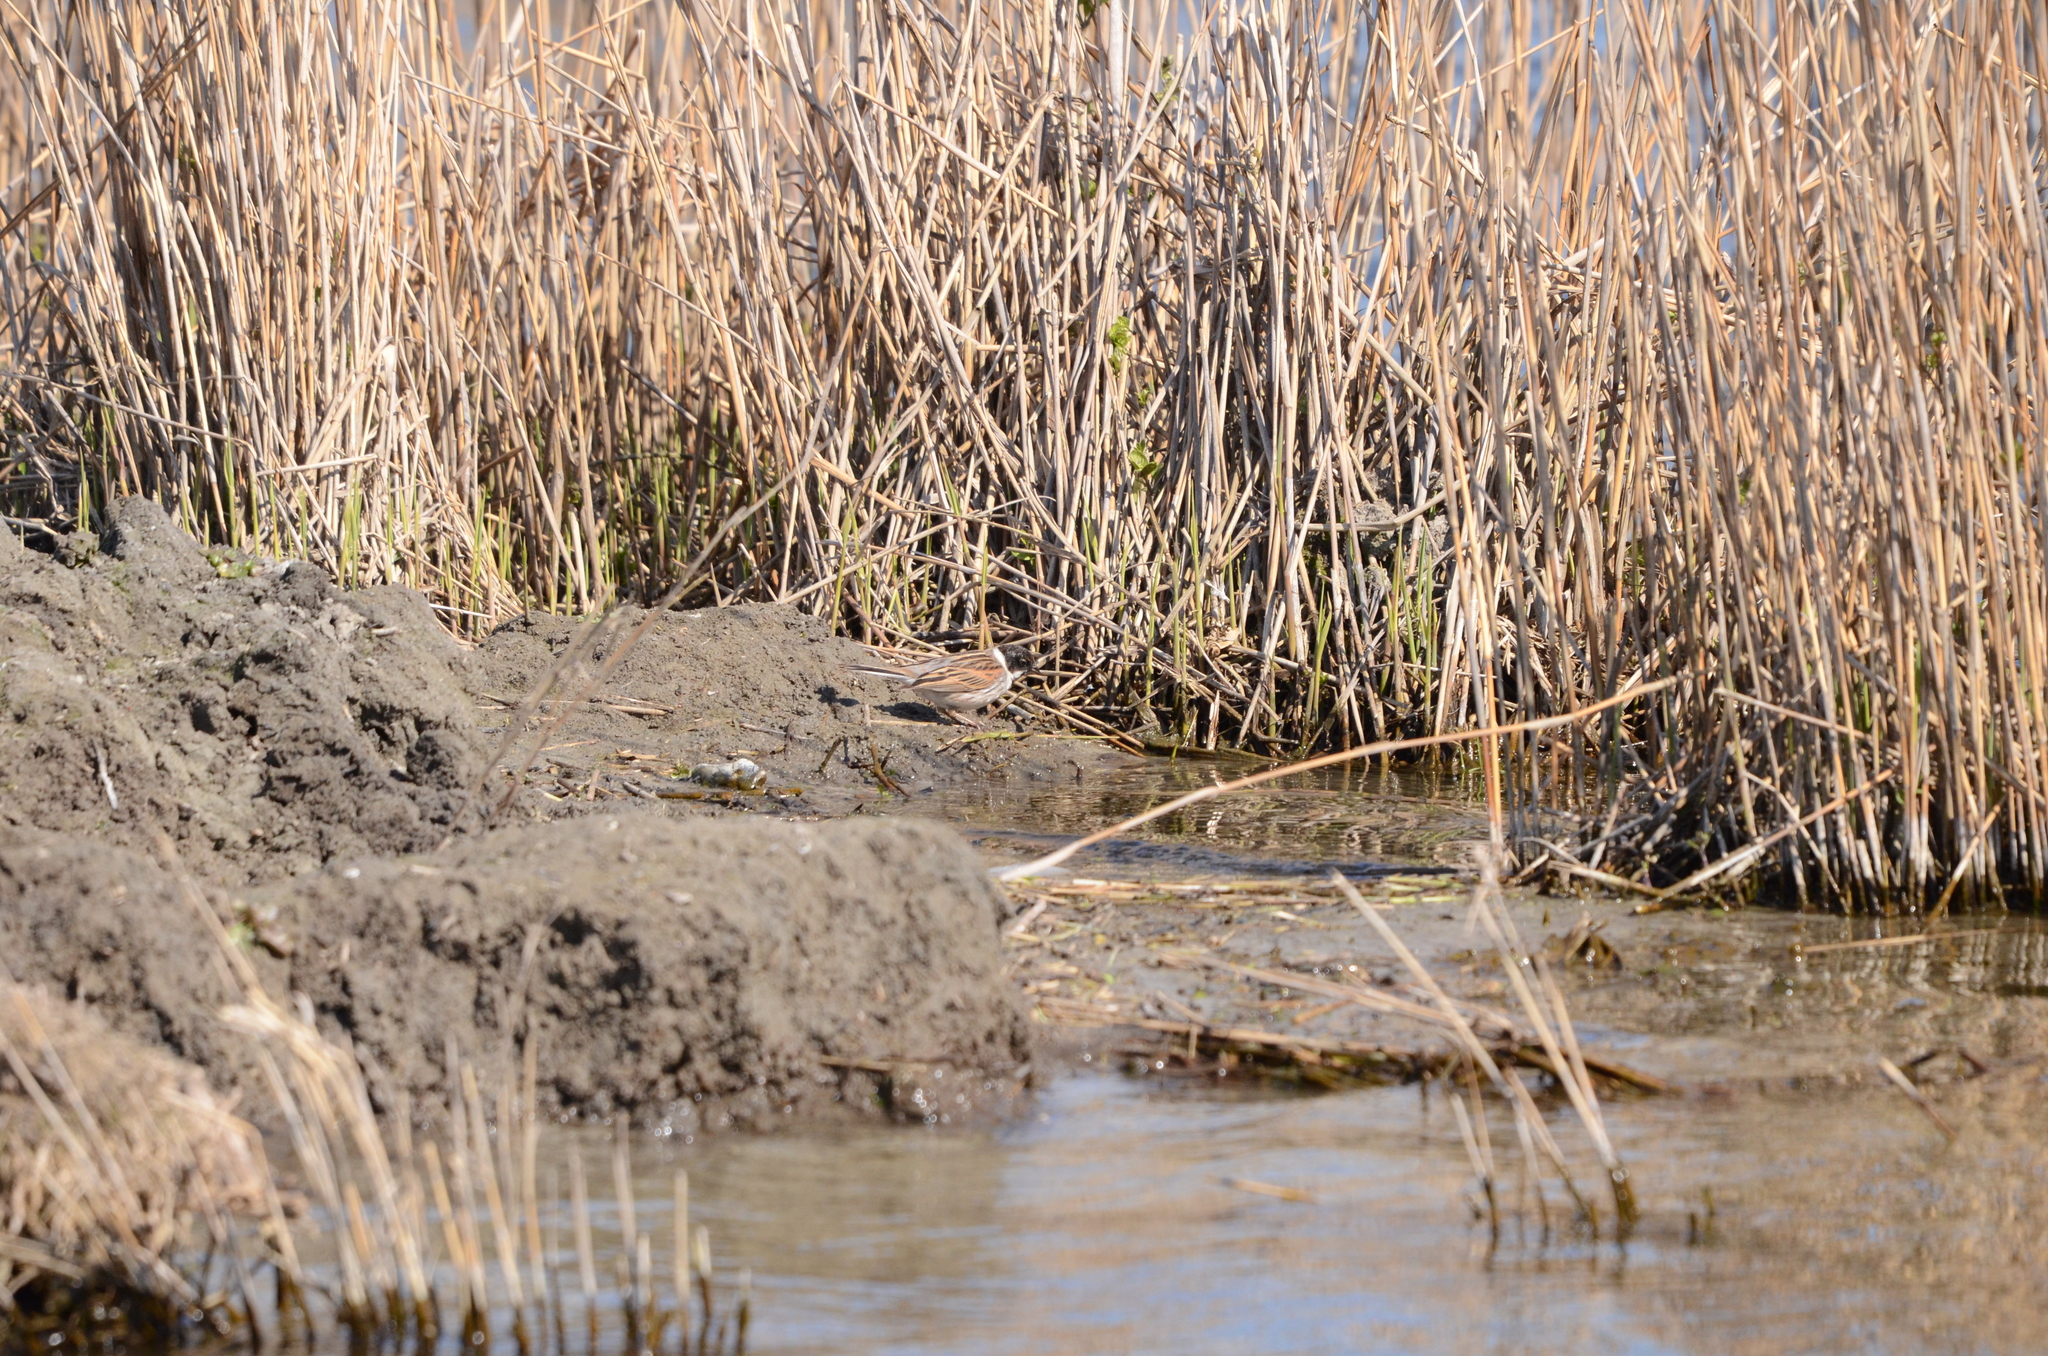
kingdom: Animalia
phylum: Chordata
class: Aves
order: Passeriformes
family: Emberizidae
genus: Emberiza
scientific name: Emberiza schoeniclus
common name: Reed bunting
